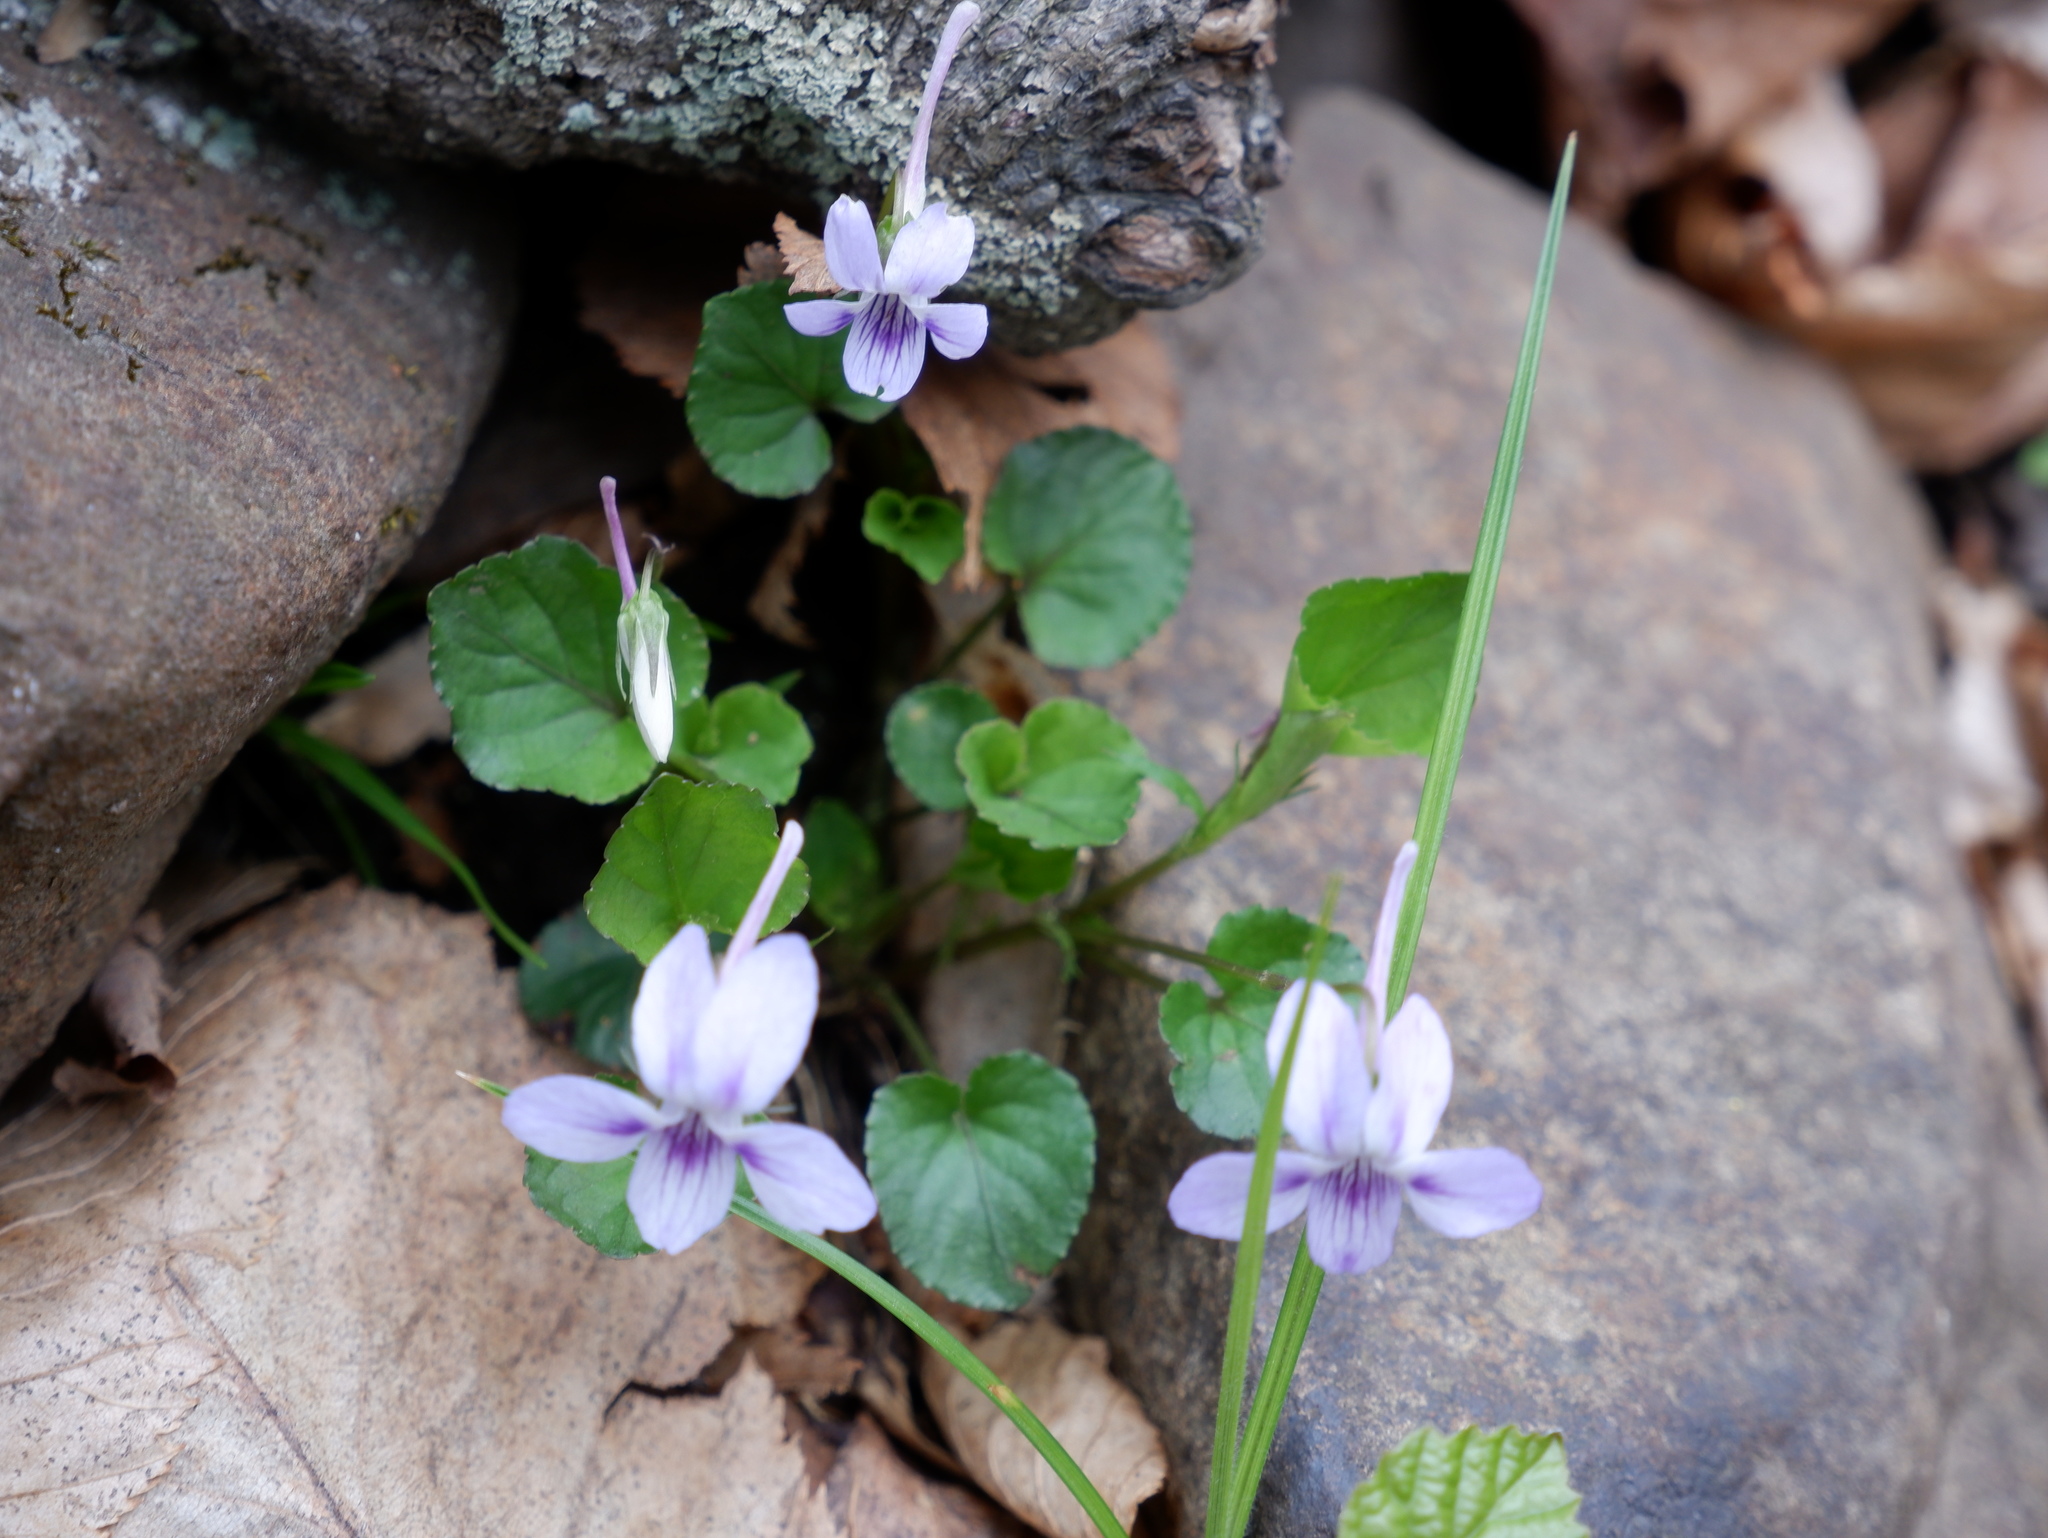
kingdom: Plantae
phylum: Tracheophyta
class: Magnoliopsida
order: Malpighiales
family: Violaceae
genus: Viola
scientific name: Viola rostrata
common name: Long-spur violet
